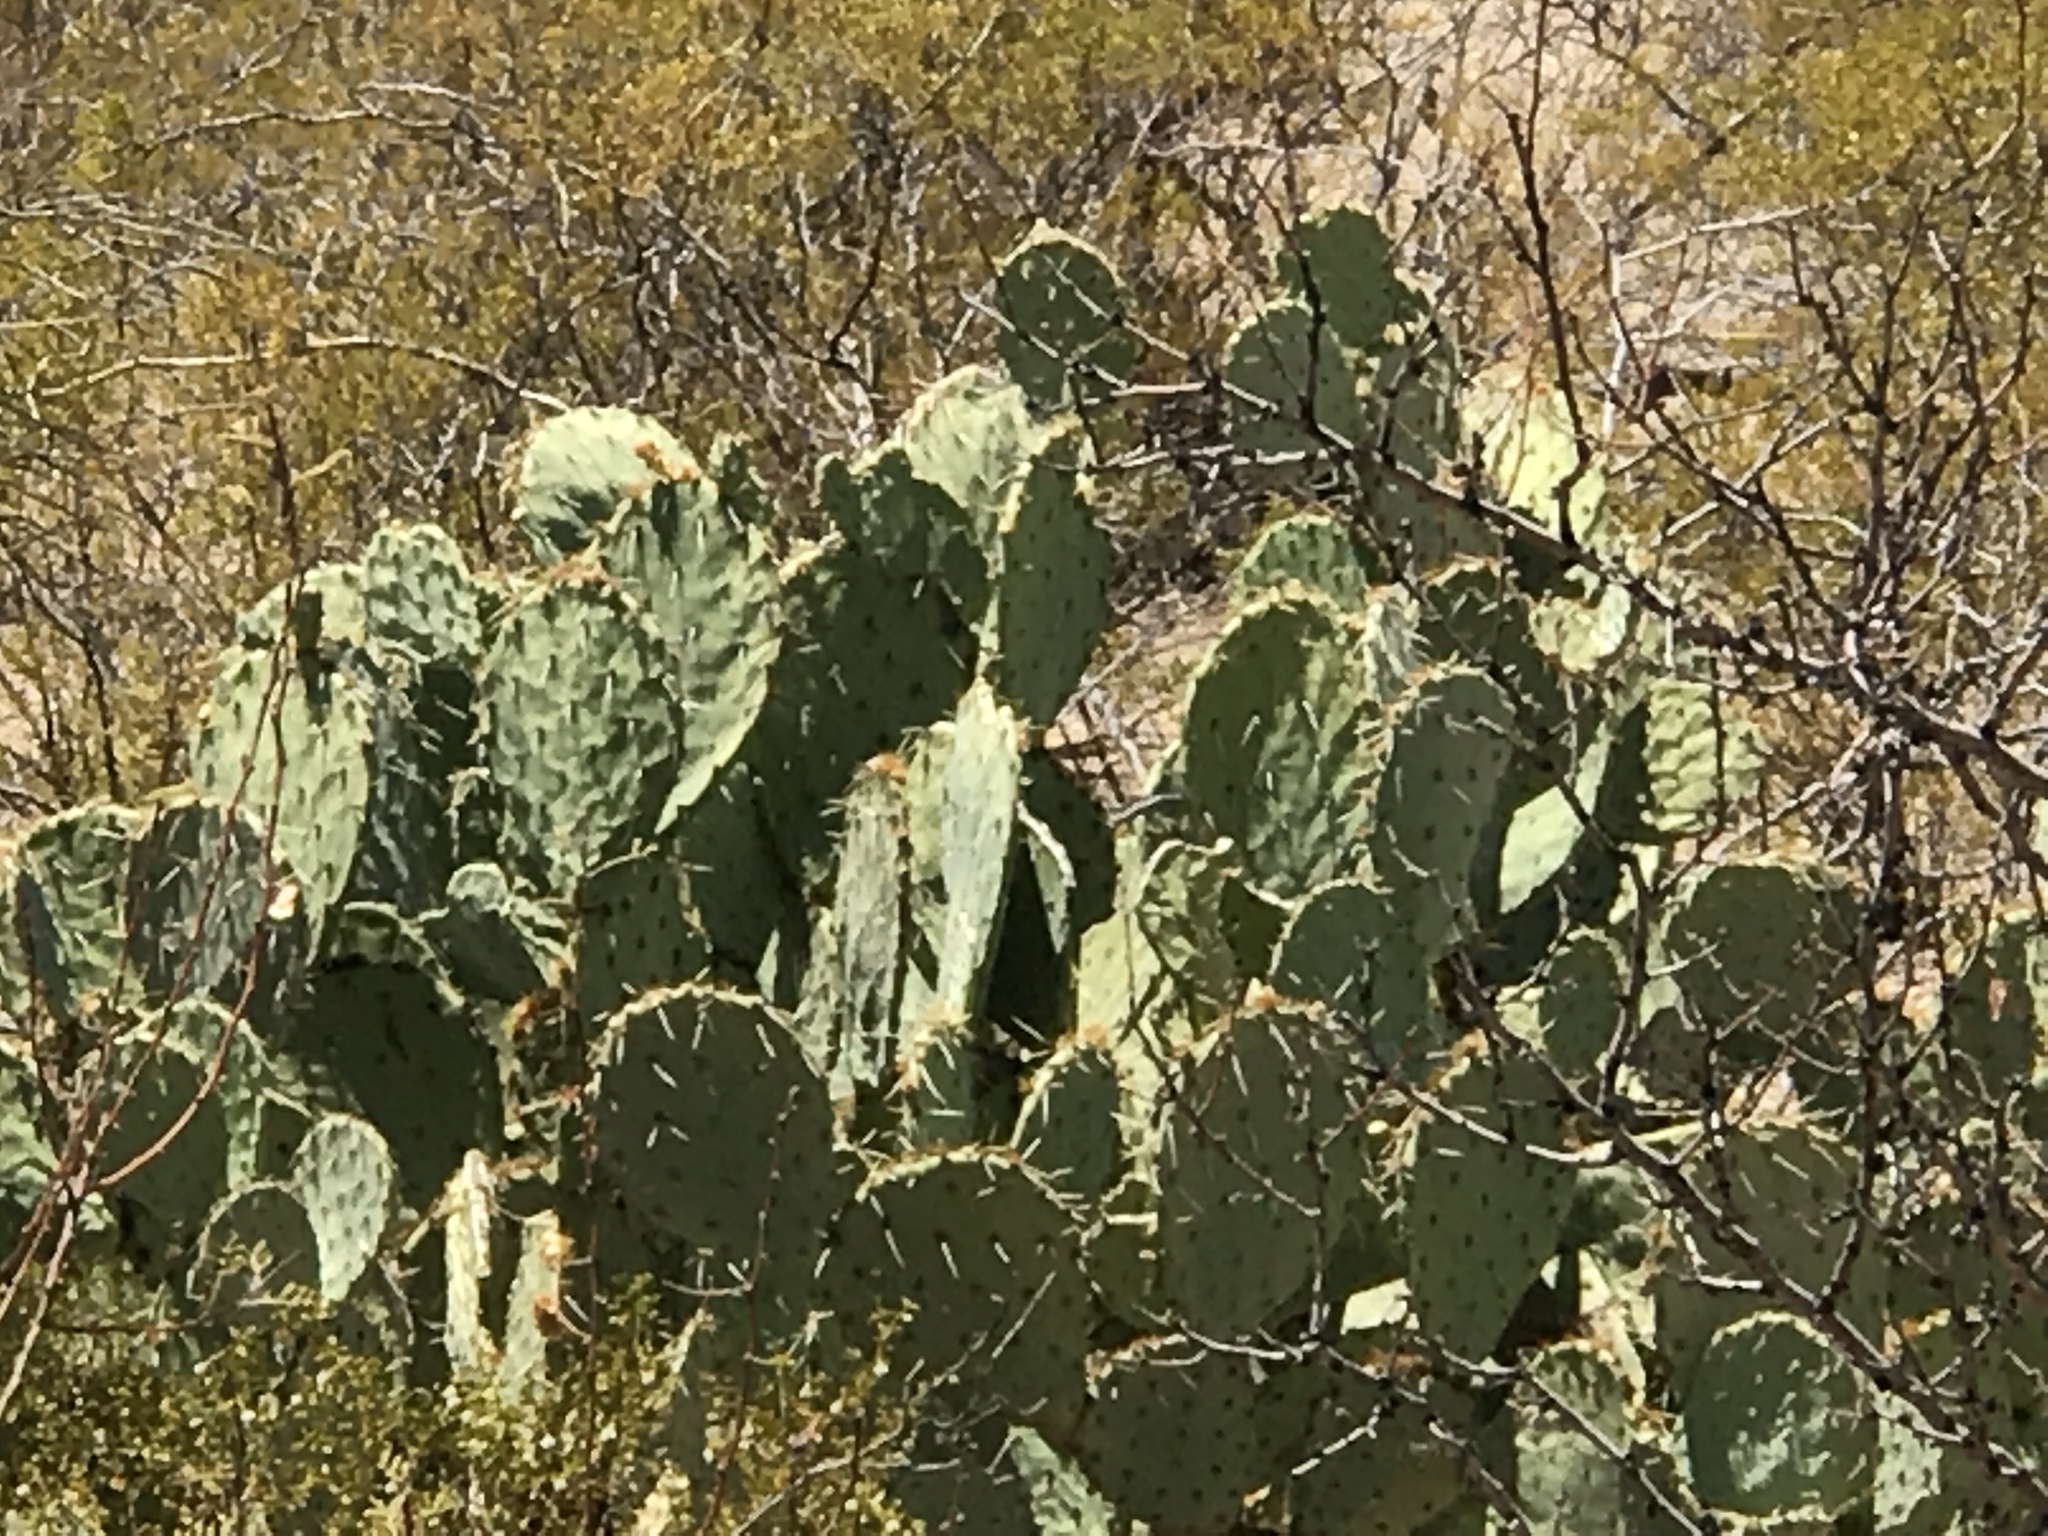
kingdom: Plantae
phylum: Tracheophyta
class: Magnoliopsida
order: Caryophyllales
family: Cactaceae
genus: Opuntia
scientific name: Opuntia engelmannii
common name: Cactus-apple
